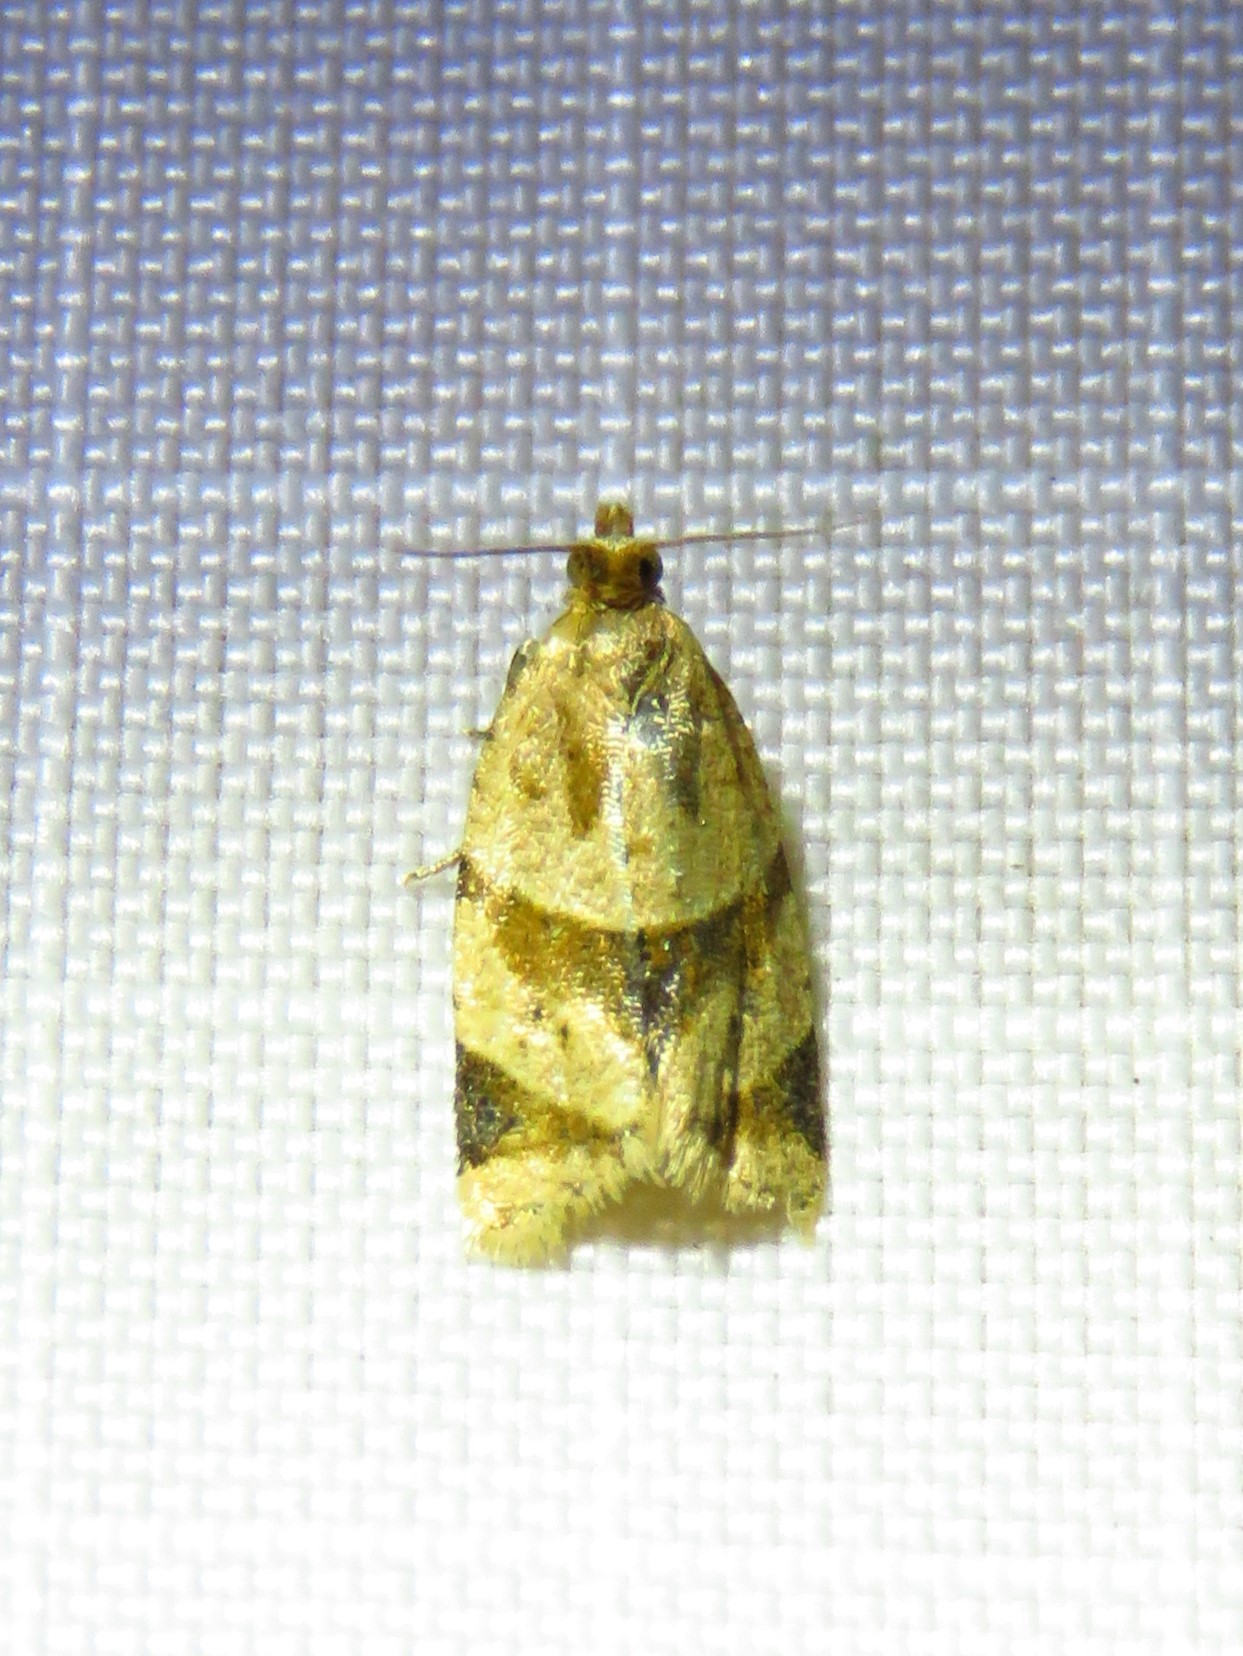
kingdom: Animalia
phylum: Arthropoda
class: Insecta
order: Lepidoptera
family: Tortricidae
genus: Clepsis
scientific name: Clepsis peritana
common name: Garden tortrix
